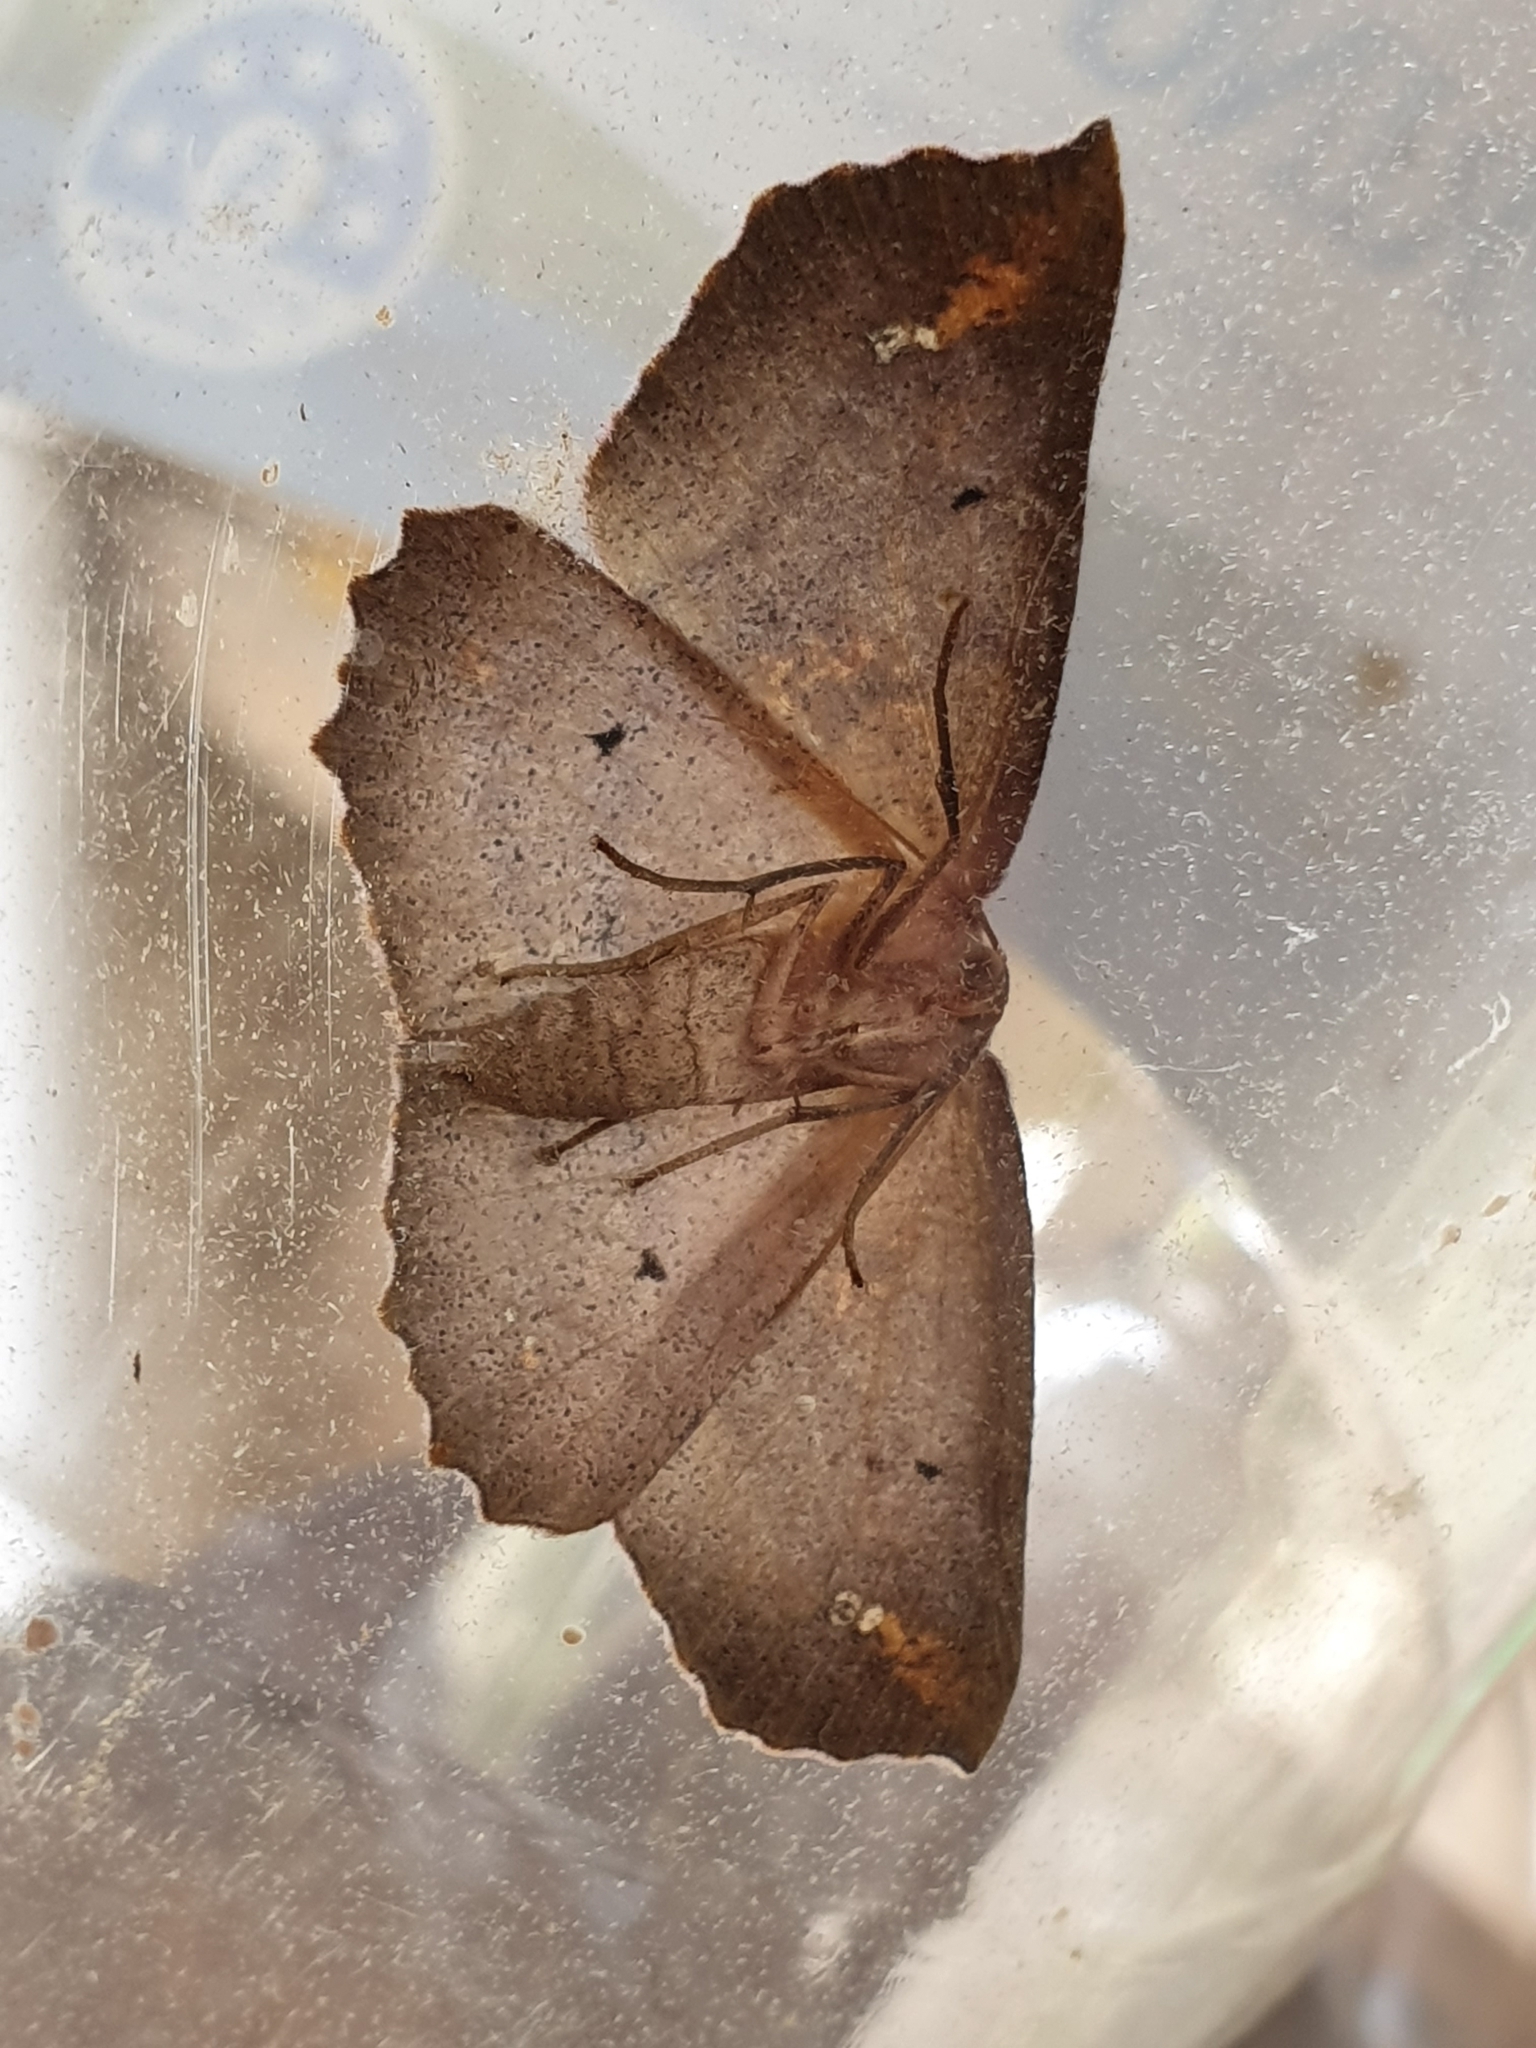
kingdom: Animalia
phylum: Arthropoda
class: Insecta
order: Lepidoptera
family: Geometridae
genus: Xyridacma
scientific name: Xyridacma ustaria
